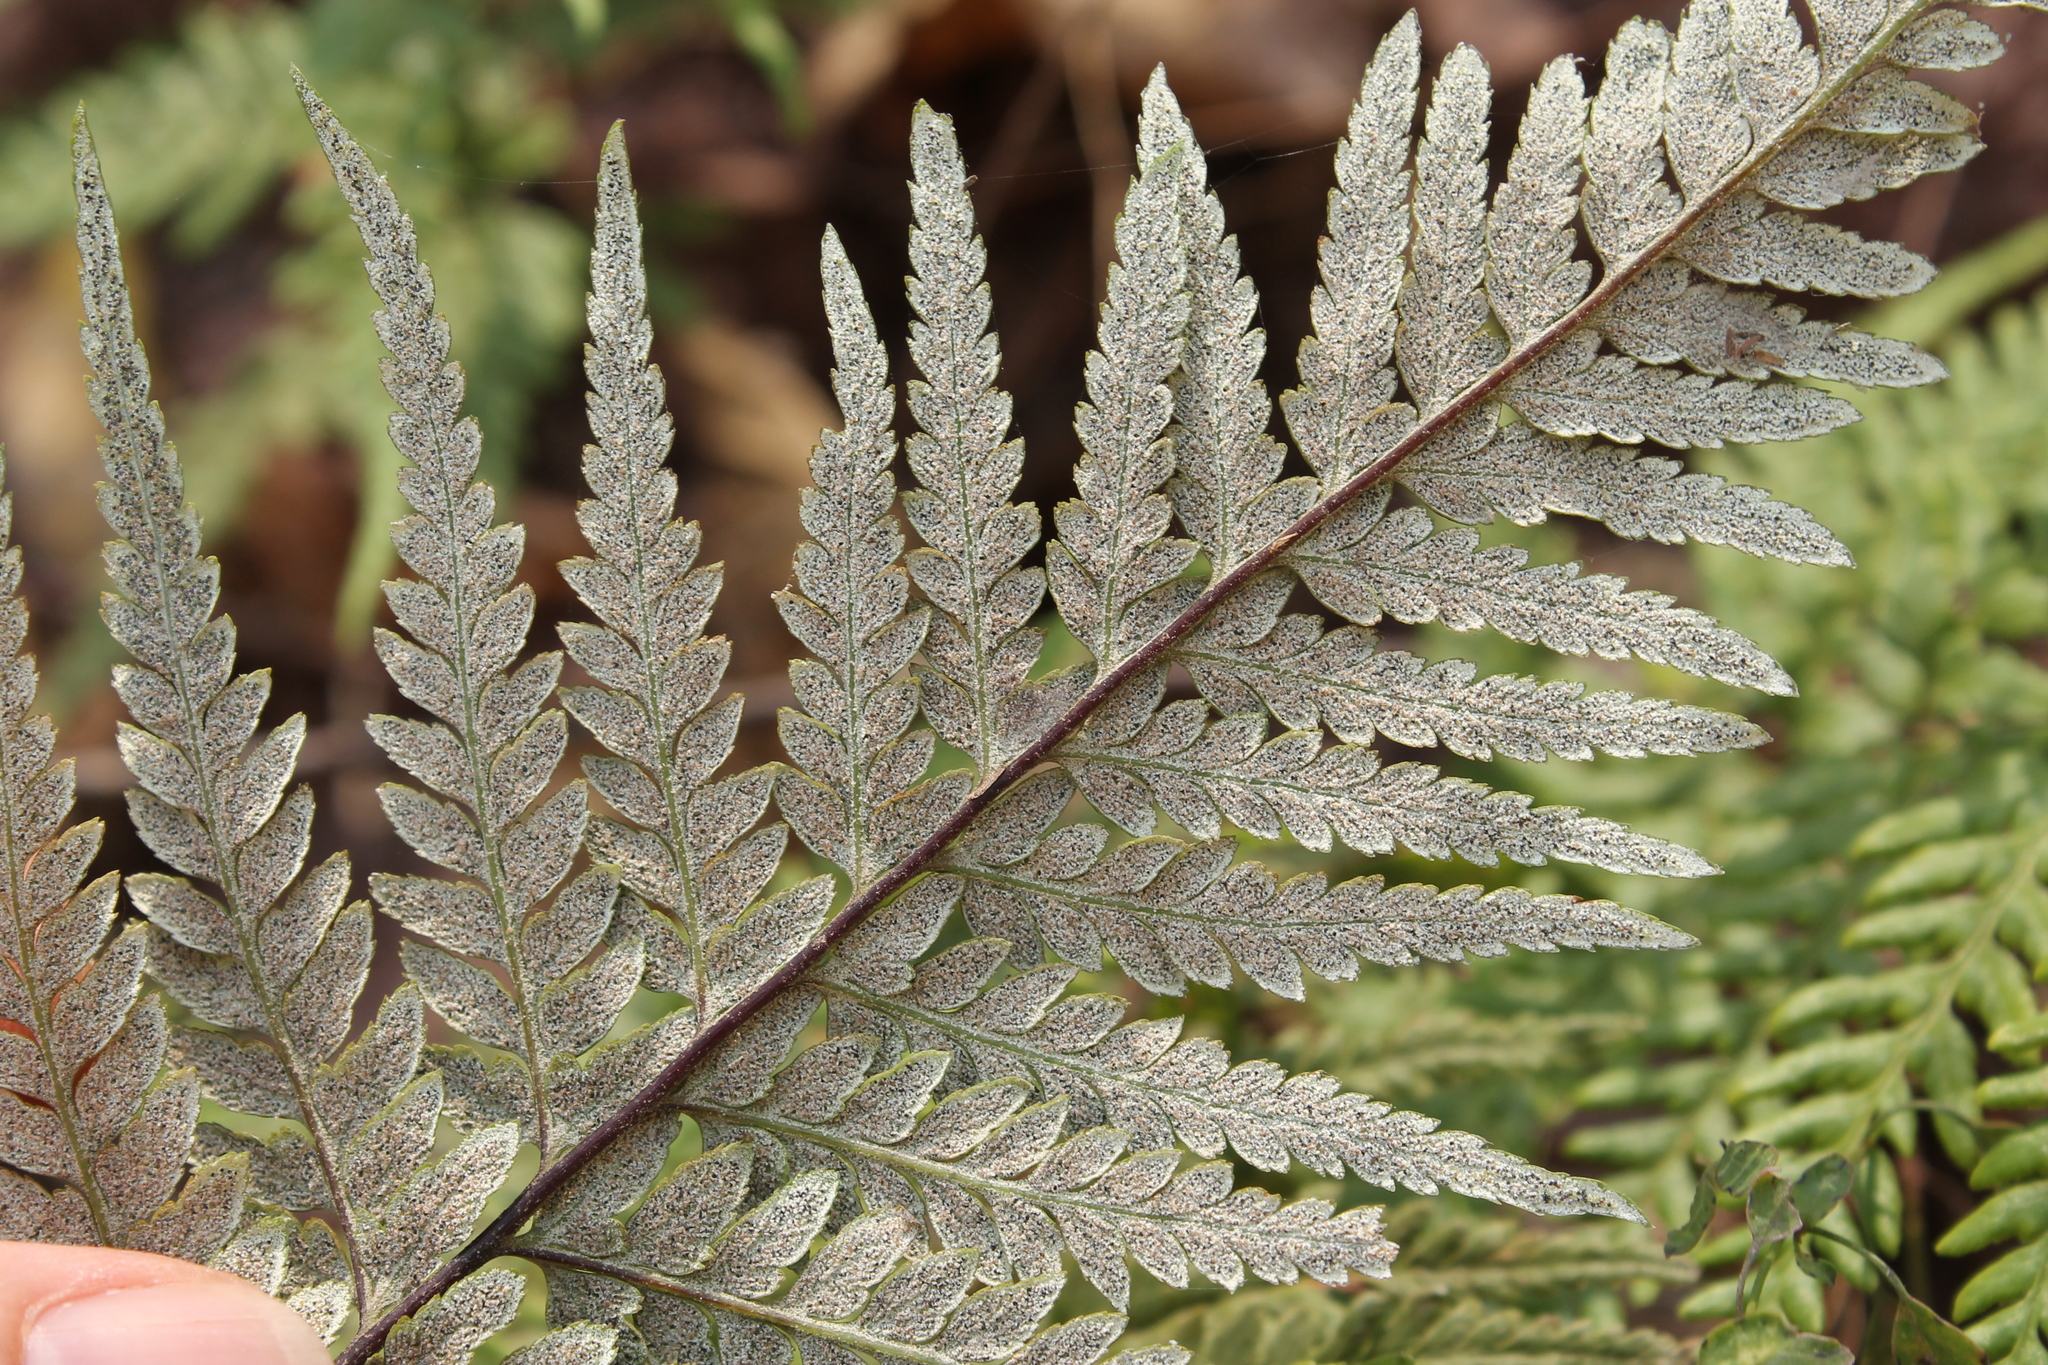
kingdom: Plantae
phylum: Tracheophyta
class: Polypodiopsida
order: Polypodiales
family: Pteridaceae
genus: Pityrogramma
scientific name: Pityrogramma calomelanos
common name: Dixie silverback fern
